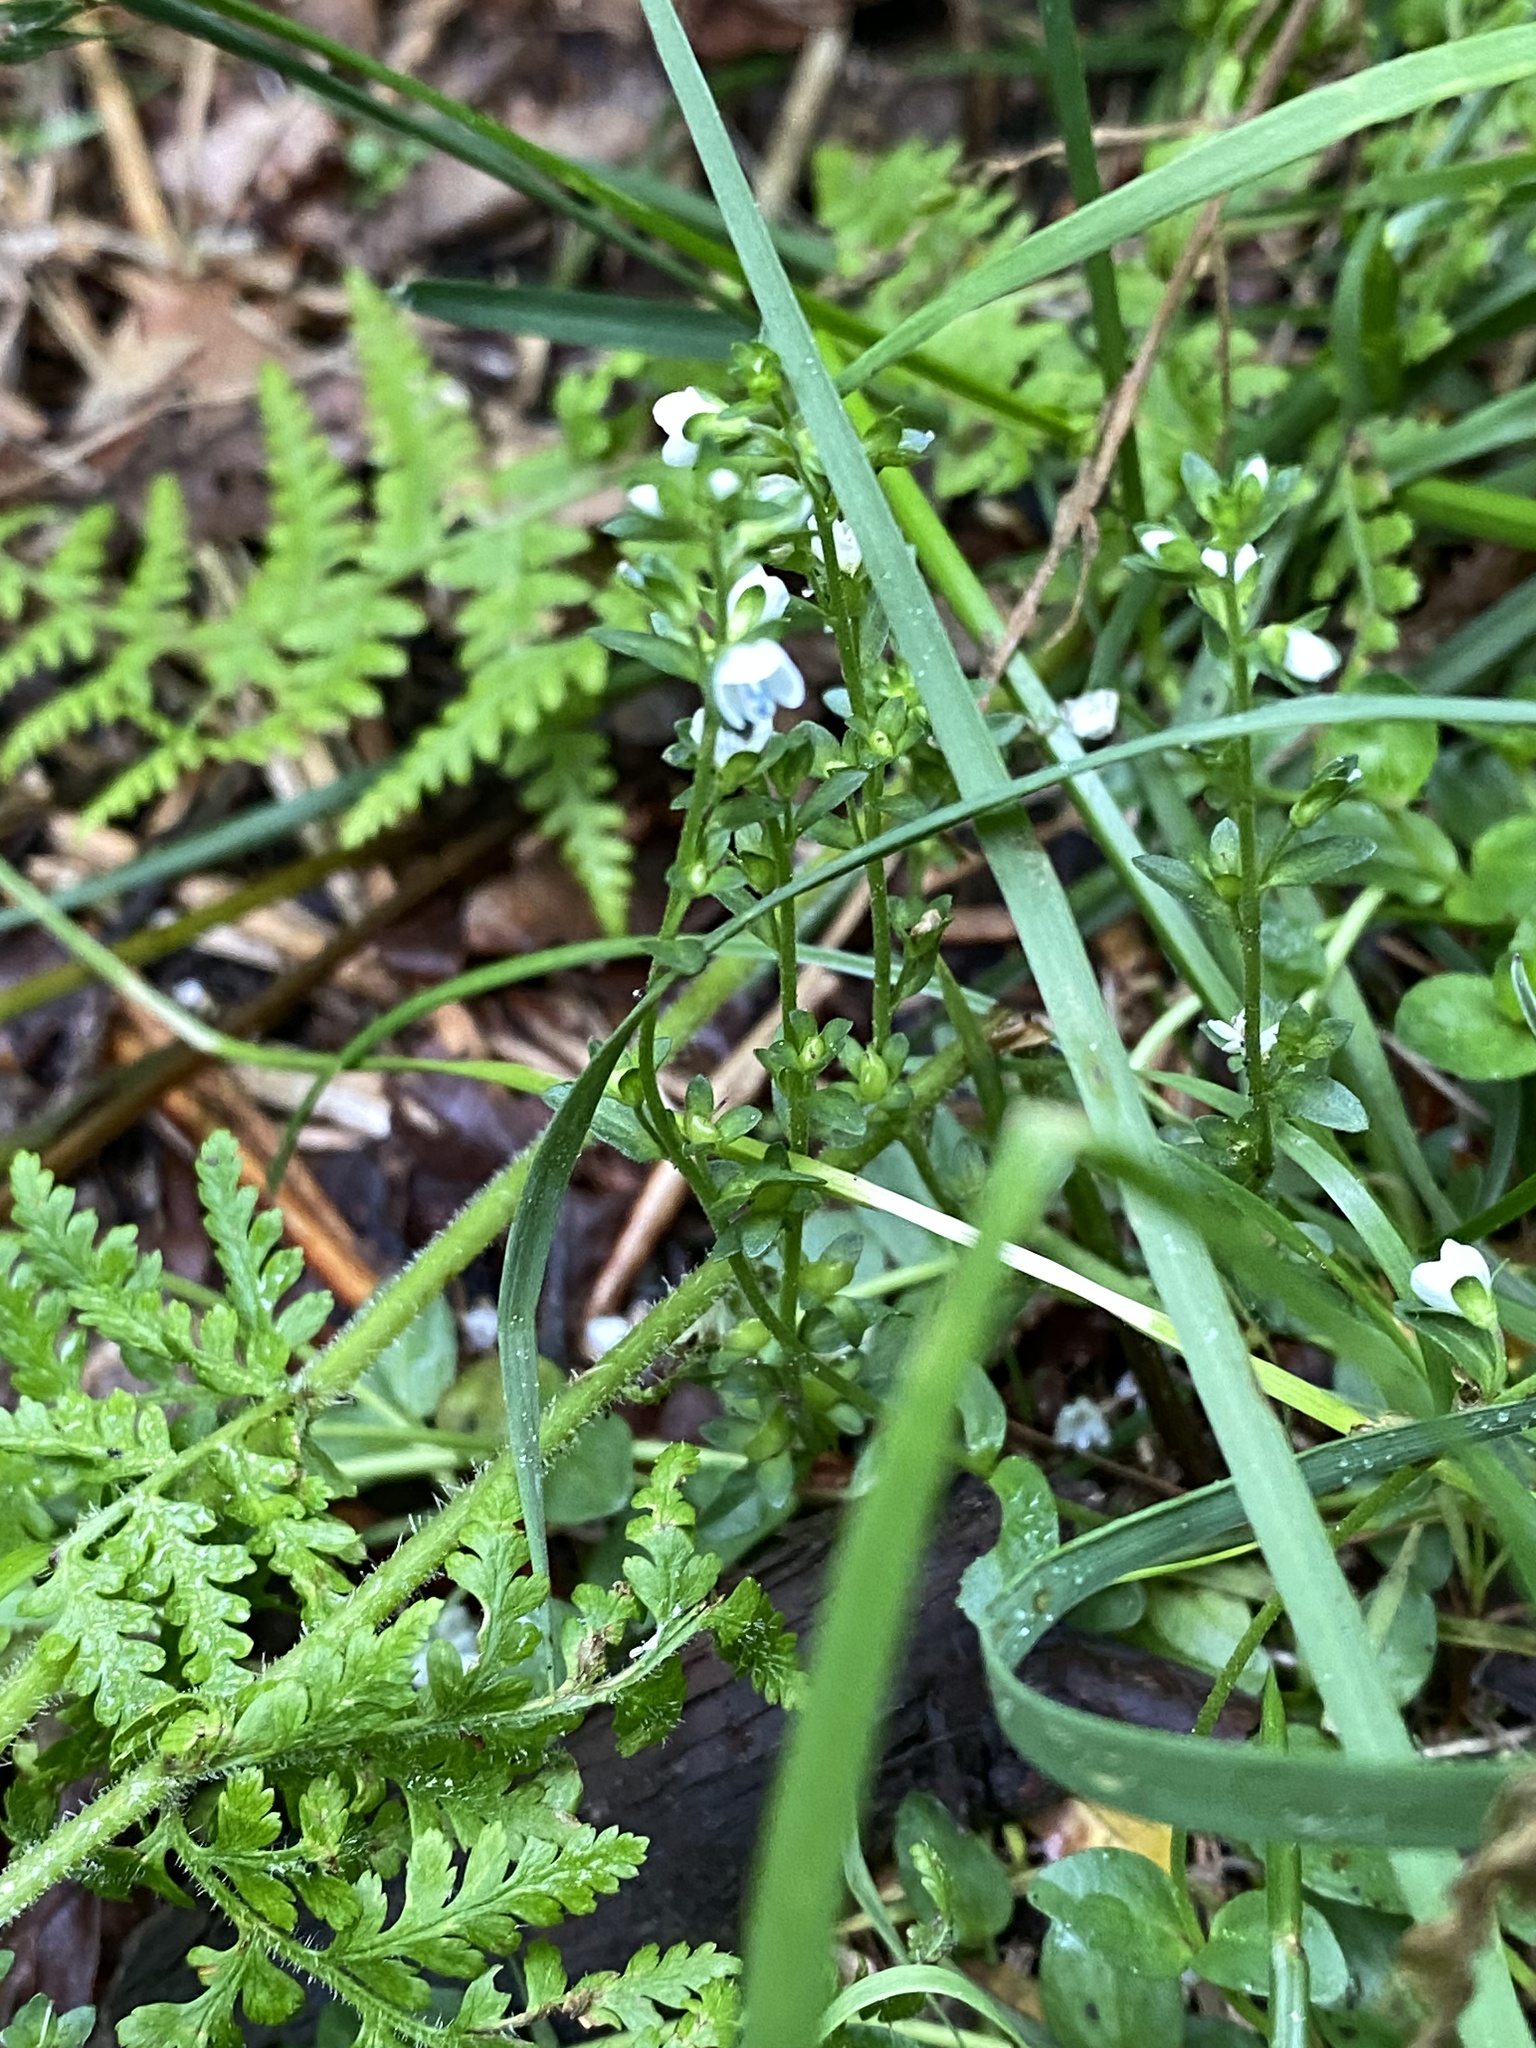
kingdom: Plantae
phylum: Tracheophyta
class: Magnoliopsida
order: Lamiales
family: Plantaginaceae
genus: Veronica
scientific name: Veronica serpyllifolia
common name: Thyme-leaved speedwell
